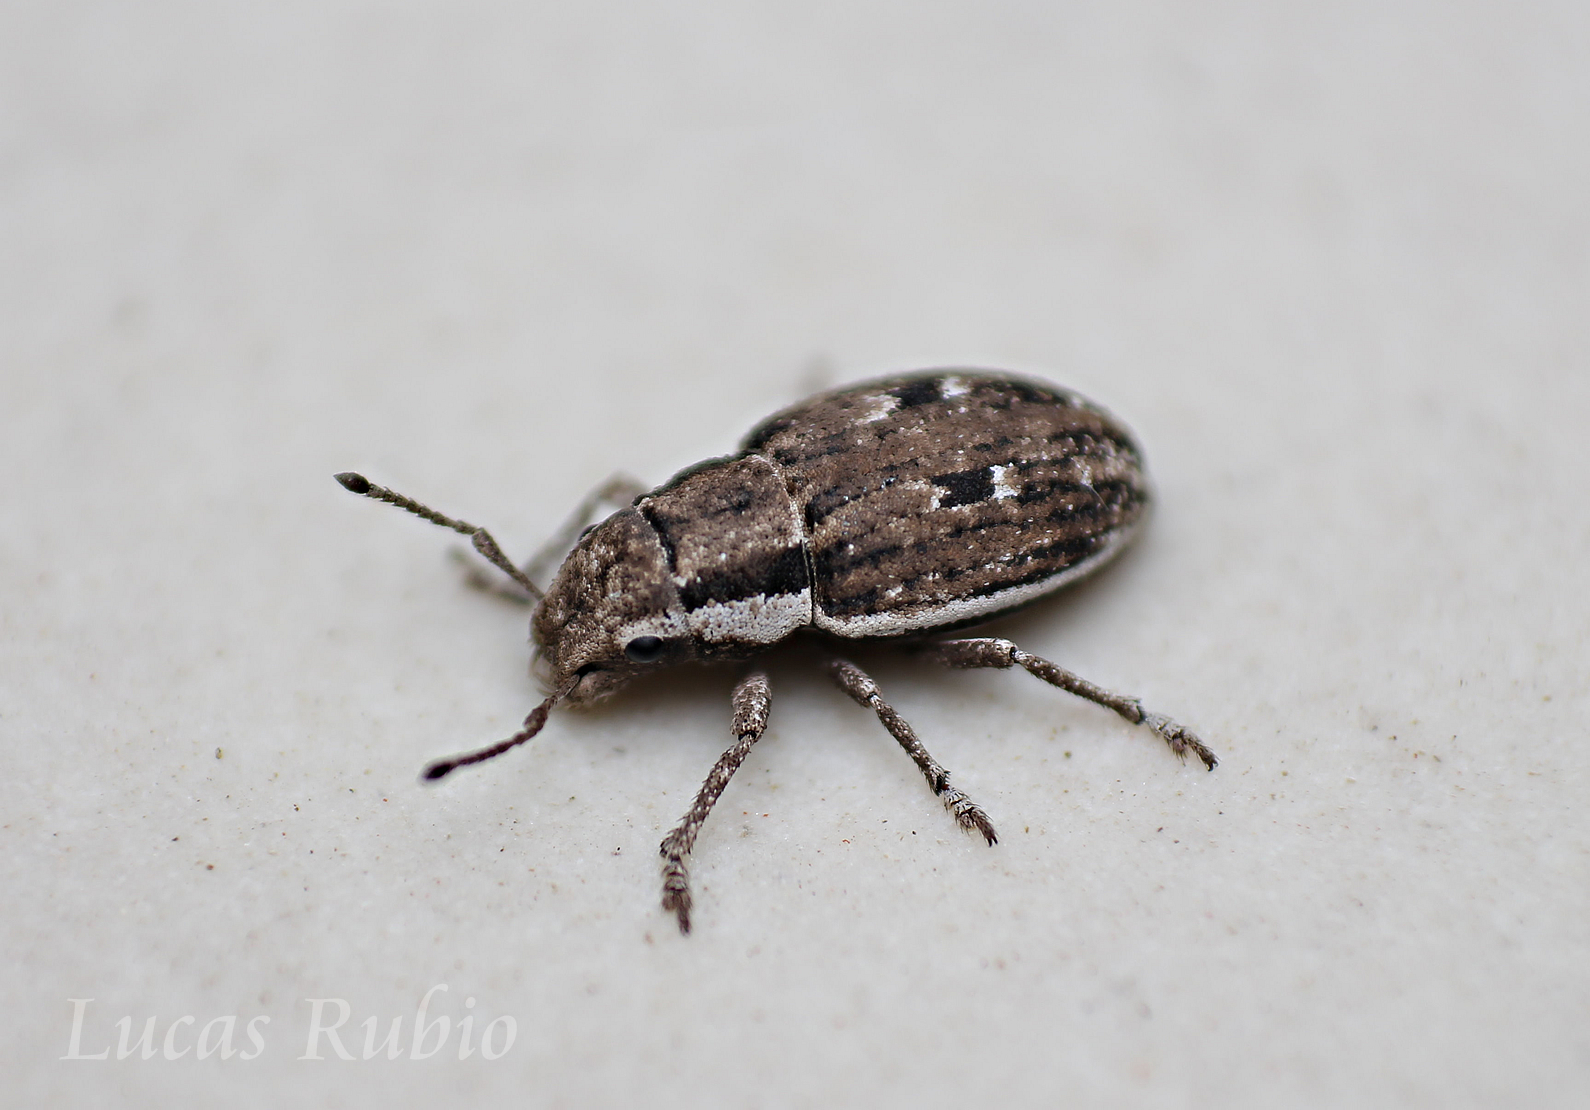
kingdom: Animalia
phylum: Arthropoda
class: Insecta
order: Coleoptera
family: Curculionidae
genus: Eurymetopus
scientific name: Eurymetopus fallax
